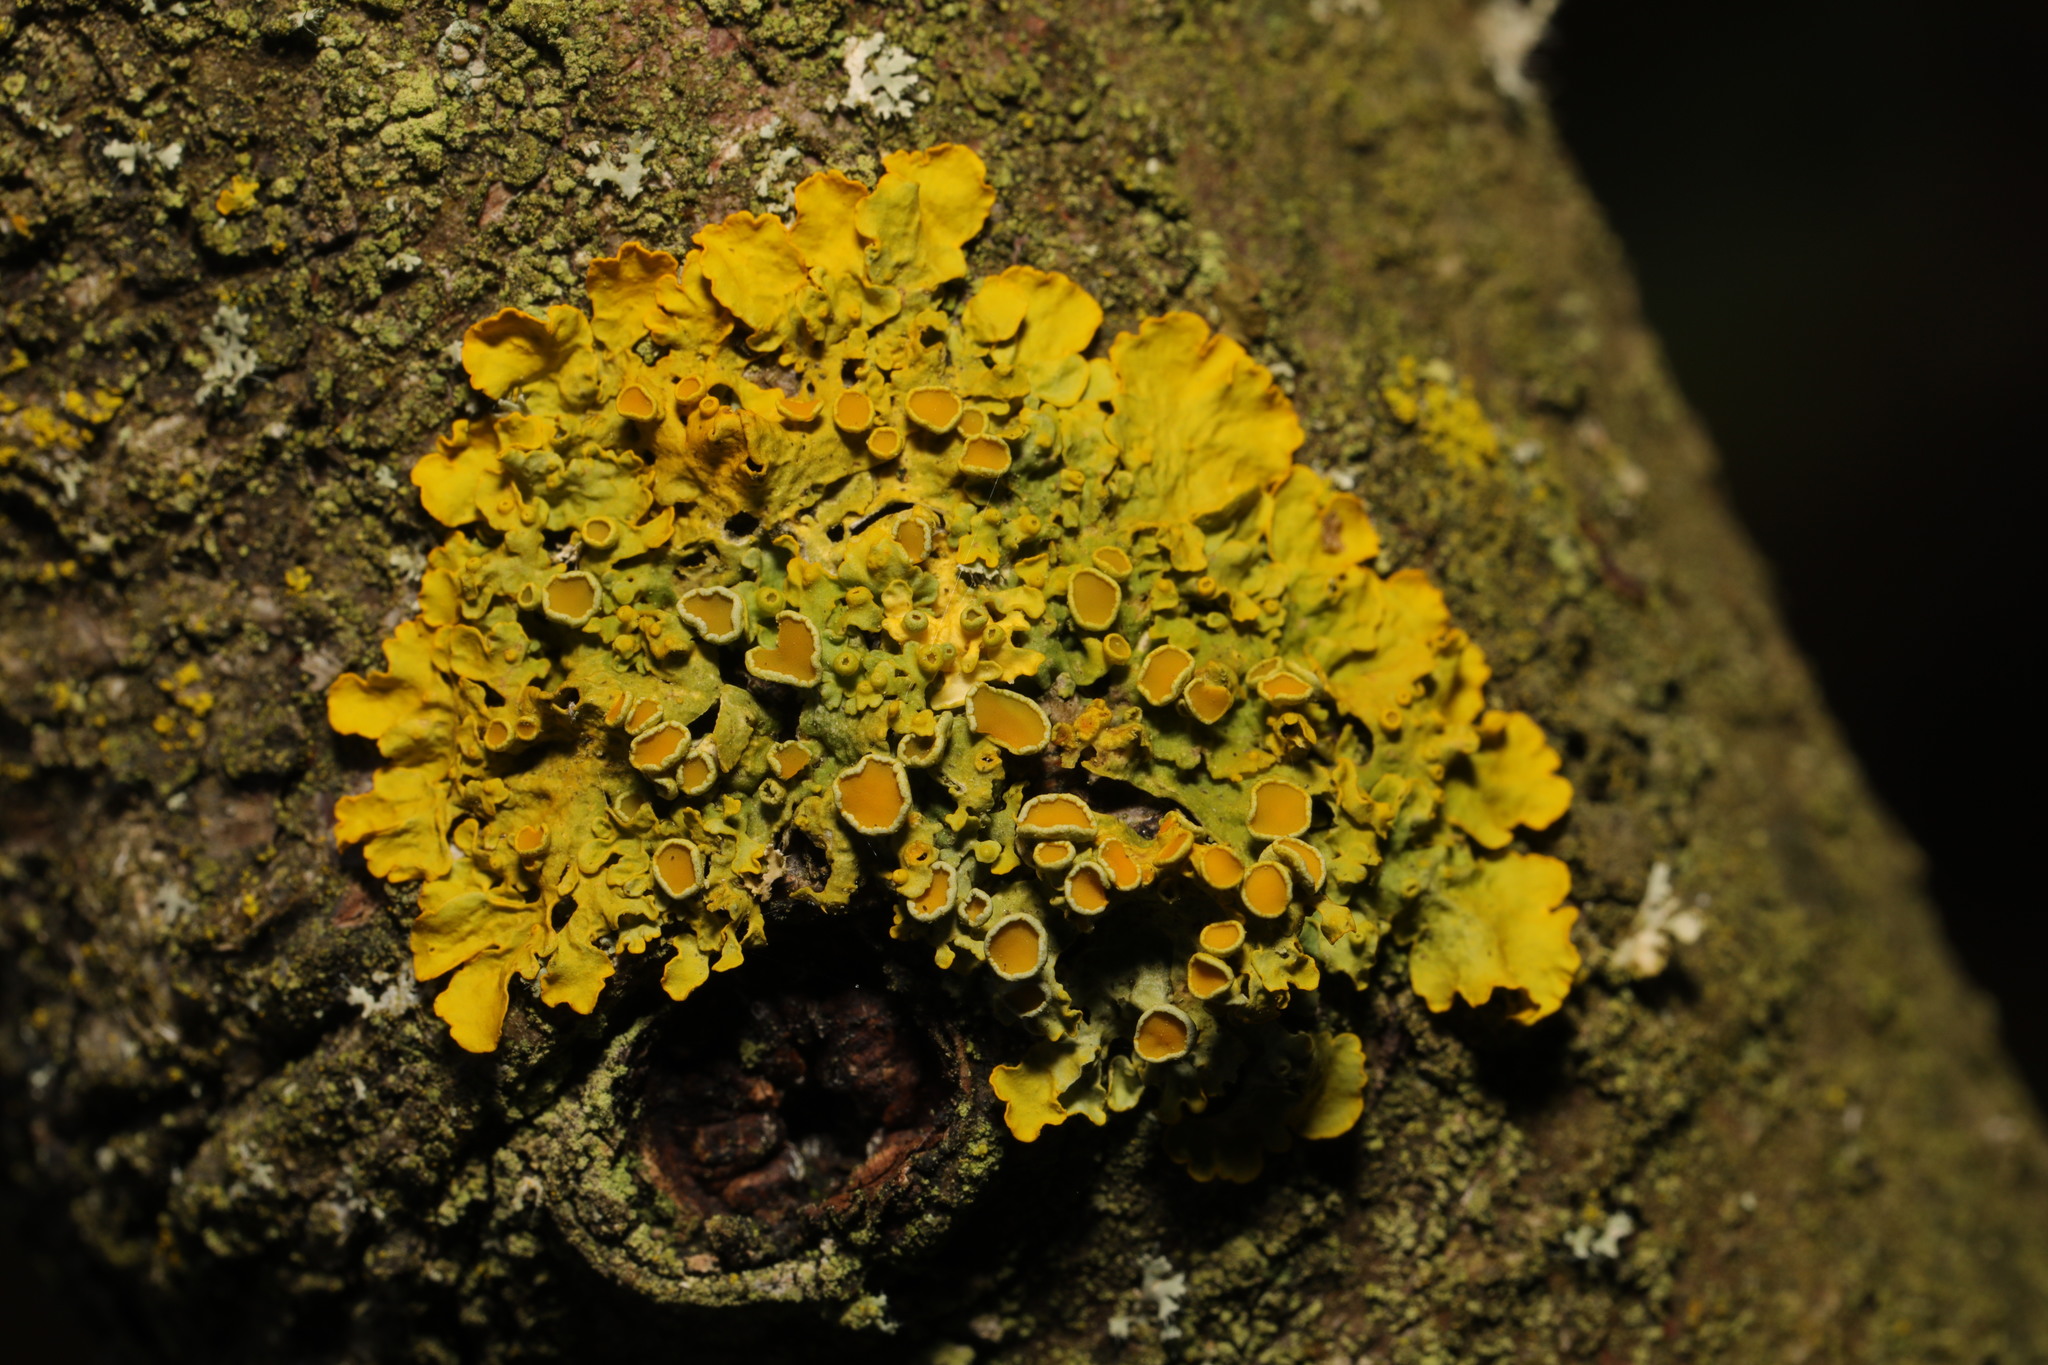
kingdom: Fungi
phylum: Ascomycota
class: Lecanoromycetes
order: Teloschistales
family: Teloschistaceae
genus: Xanthoria
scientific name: Xanthoria parietina
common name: Common orange lichen
